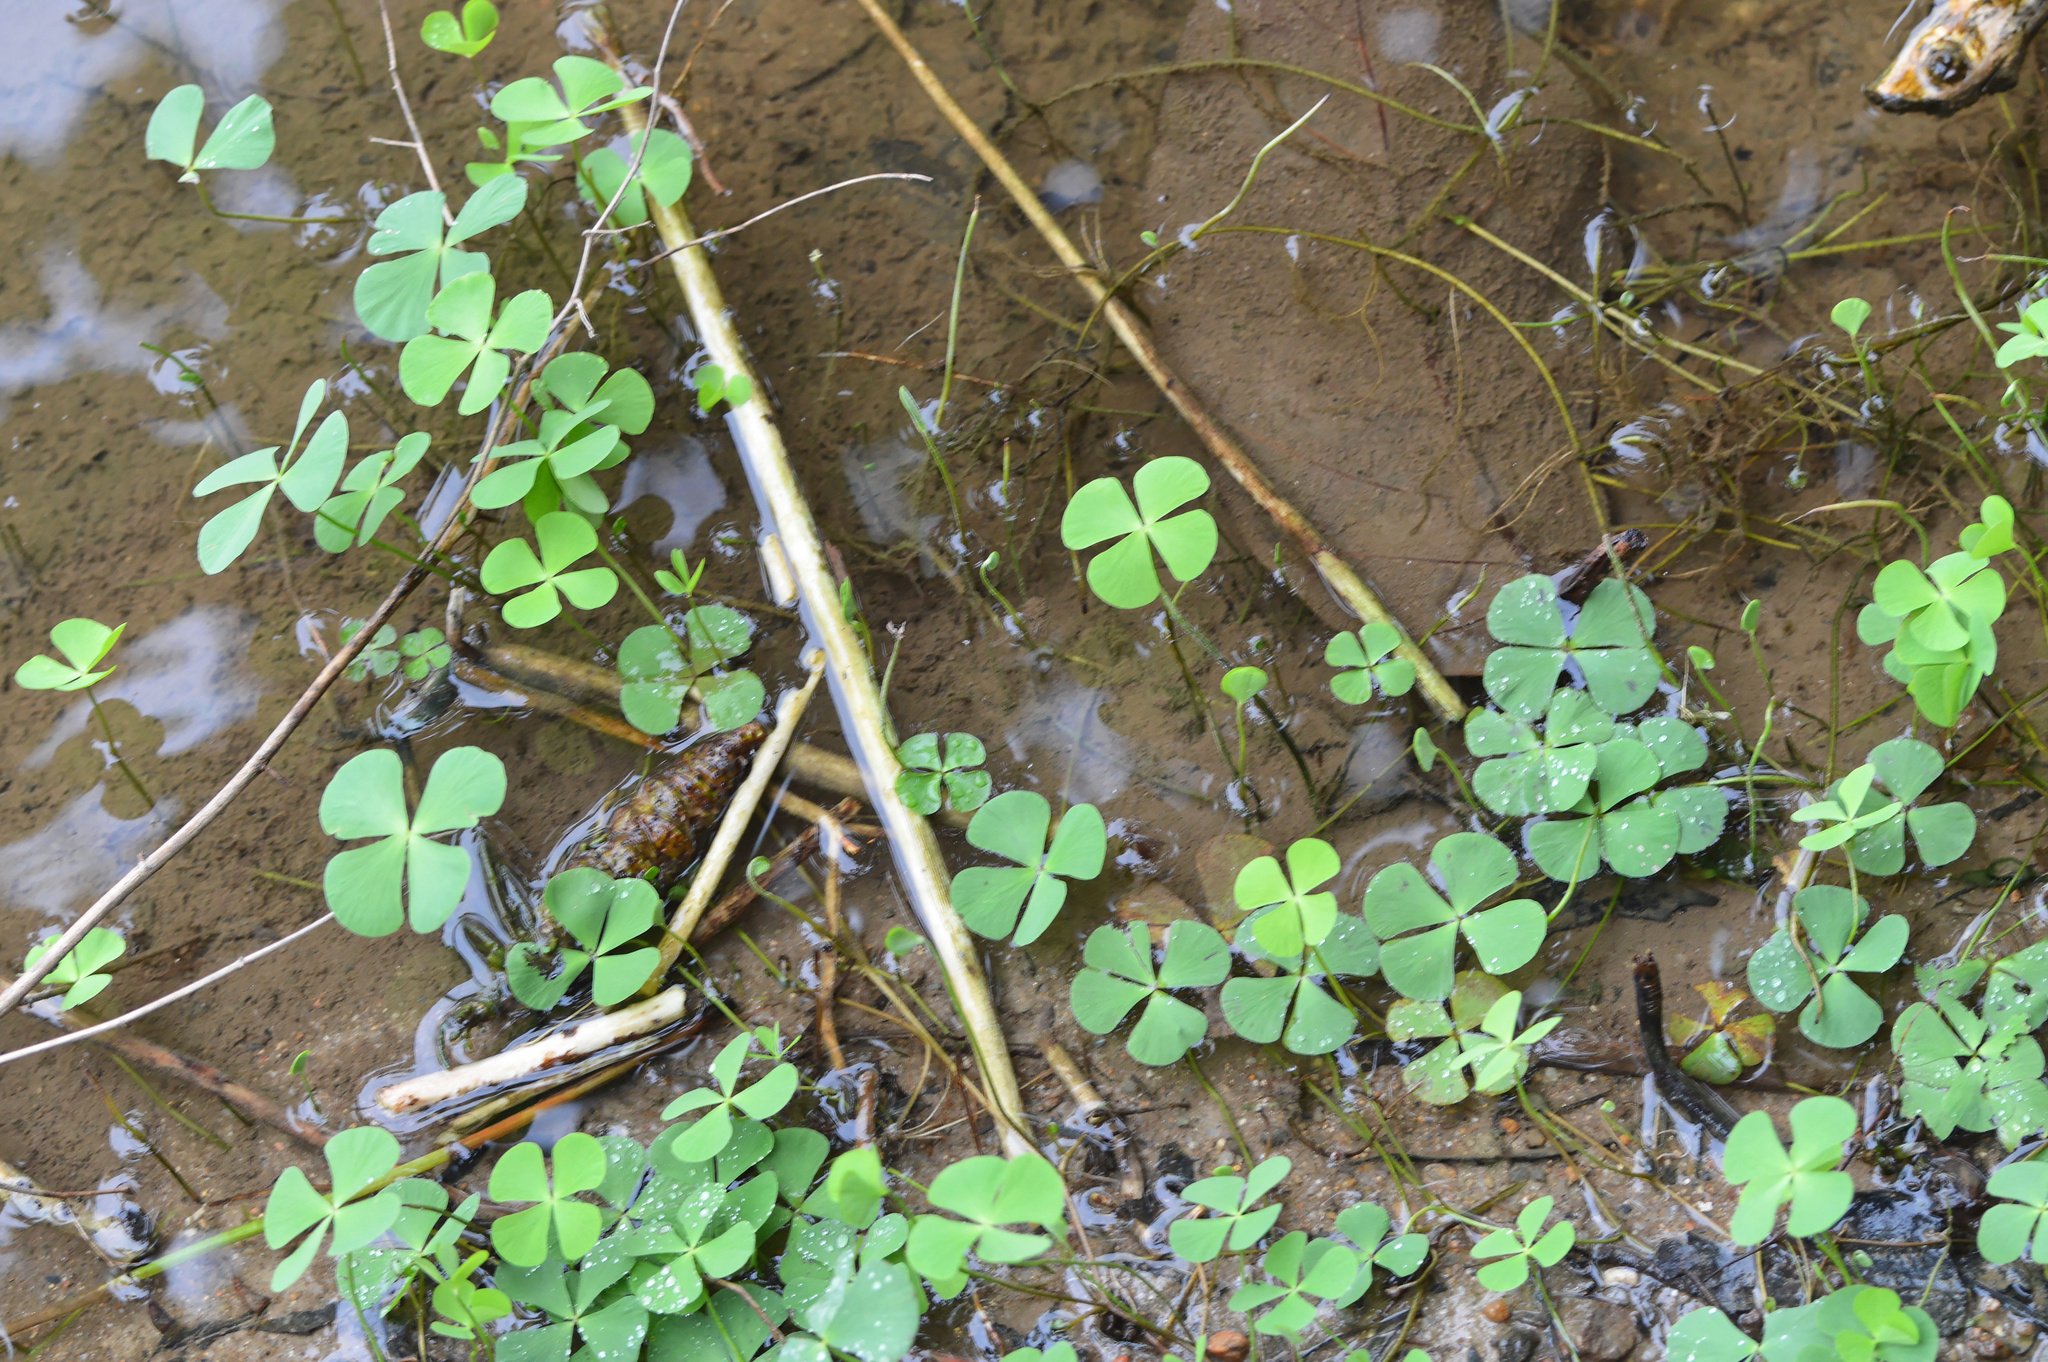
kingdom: Plantae
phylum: Tracheophyta
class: Polypodiopsida
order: Salviniales
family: Marsileaceae
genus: Marsilea
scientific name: Marsilea
